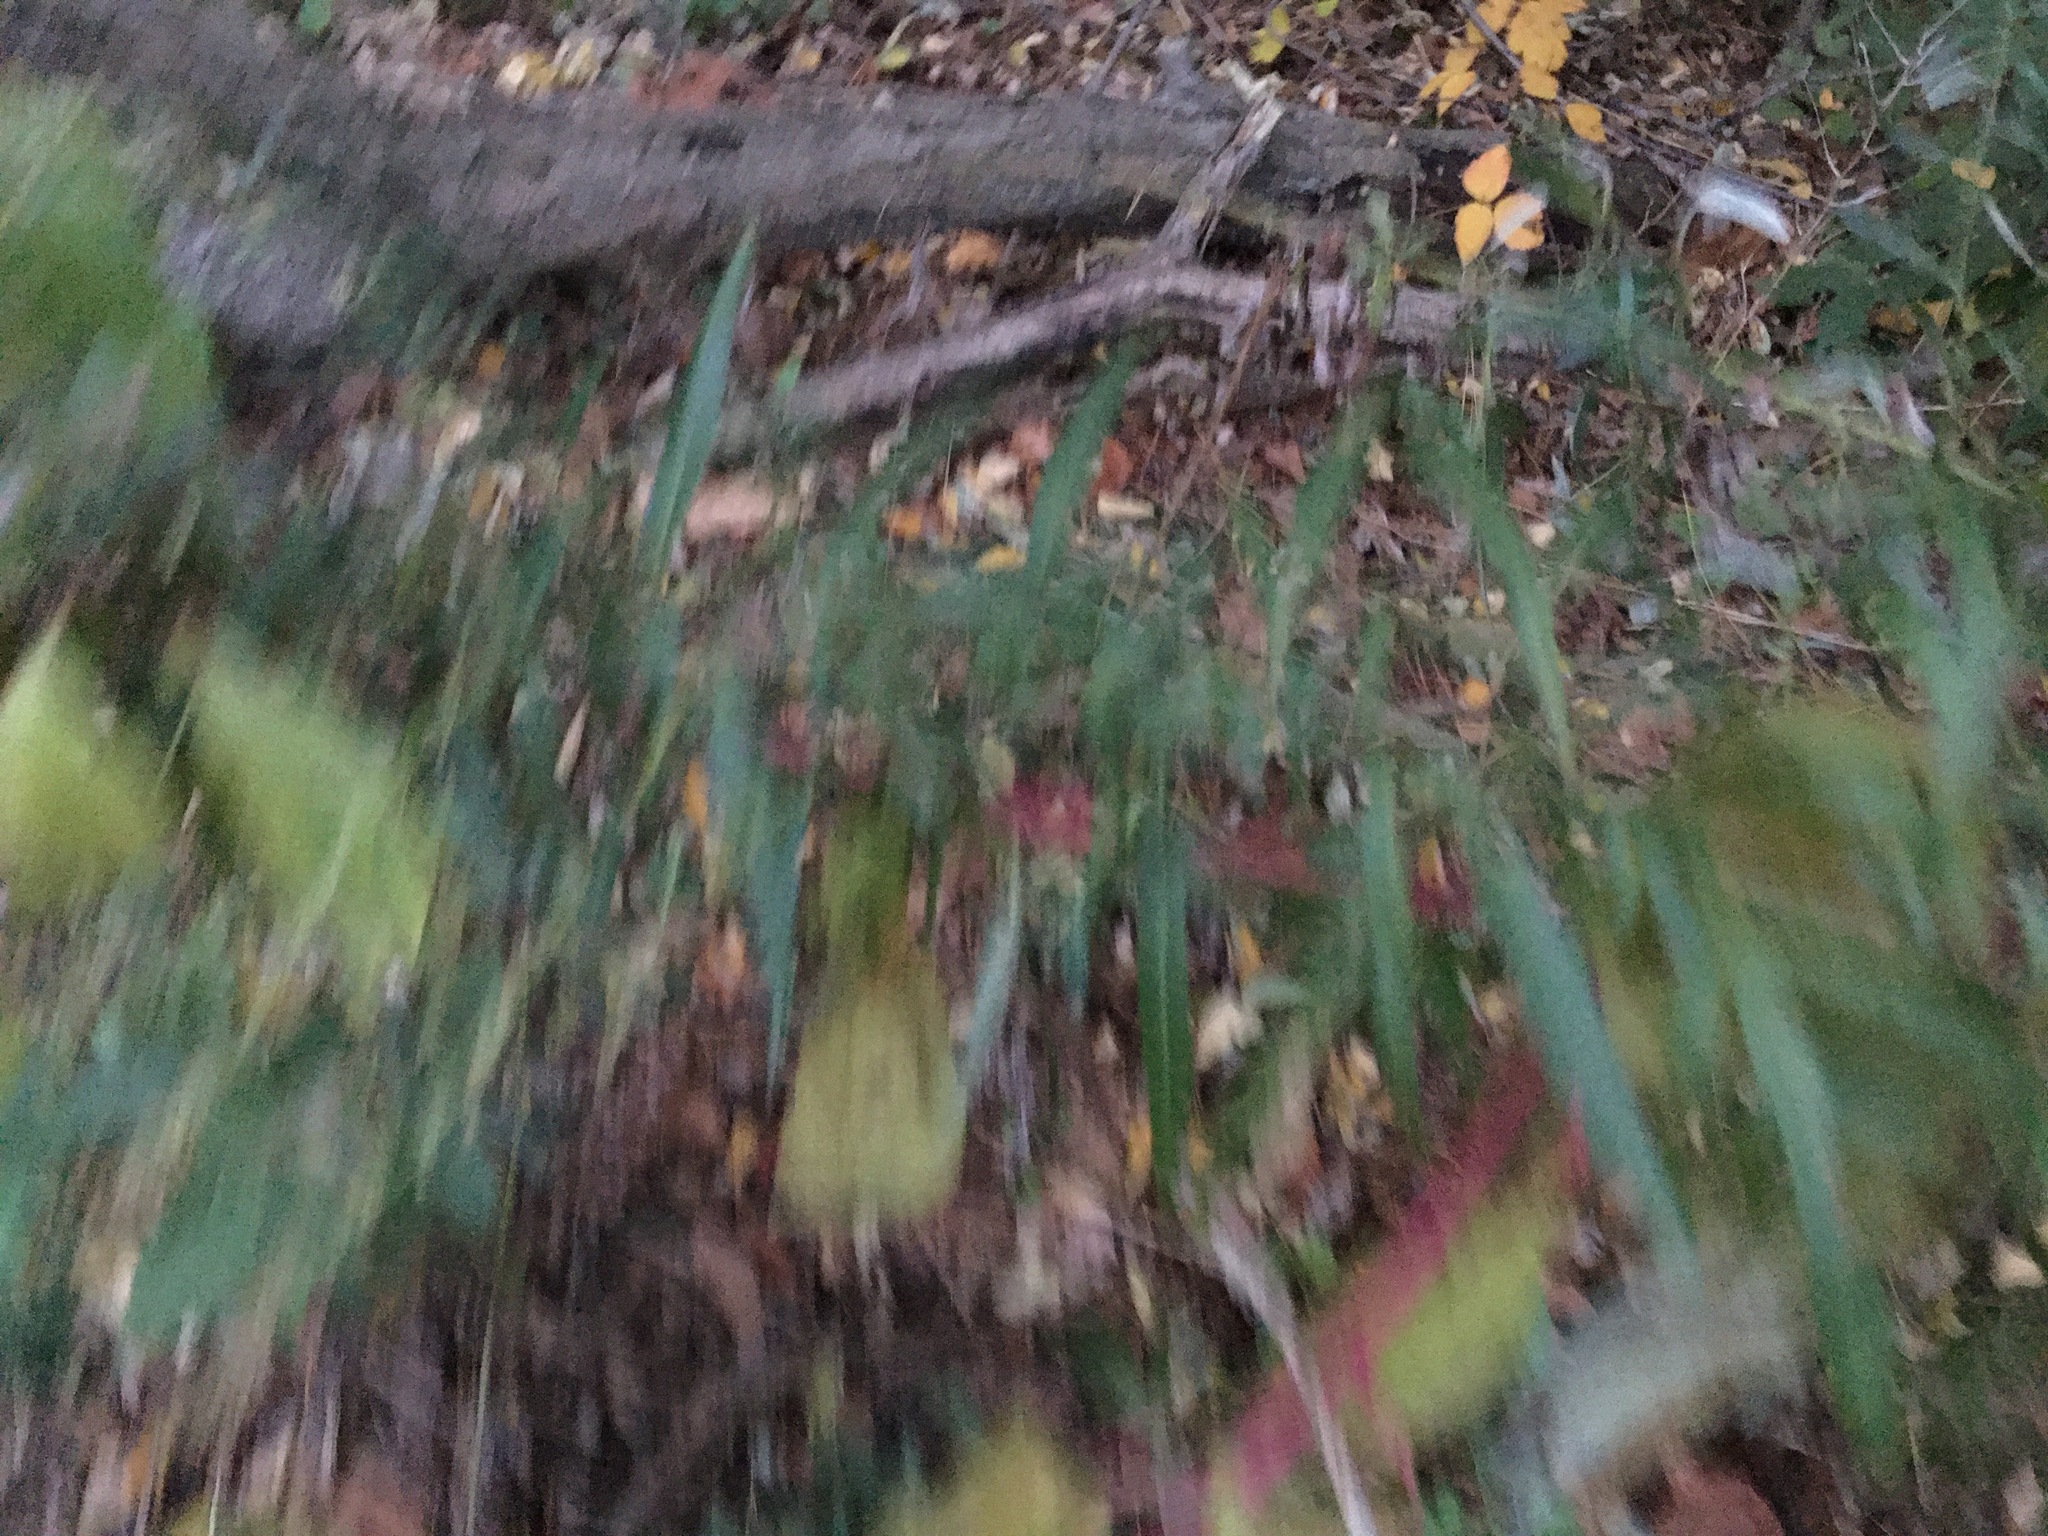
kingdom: Plantae
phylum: Tracheophyta
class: Magnoliopsida
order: Asterales
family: Asteraceae
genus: Artemisia
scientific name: Artemisia vulgaris
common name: Mugwort
